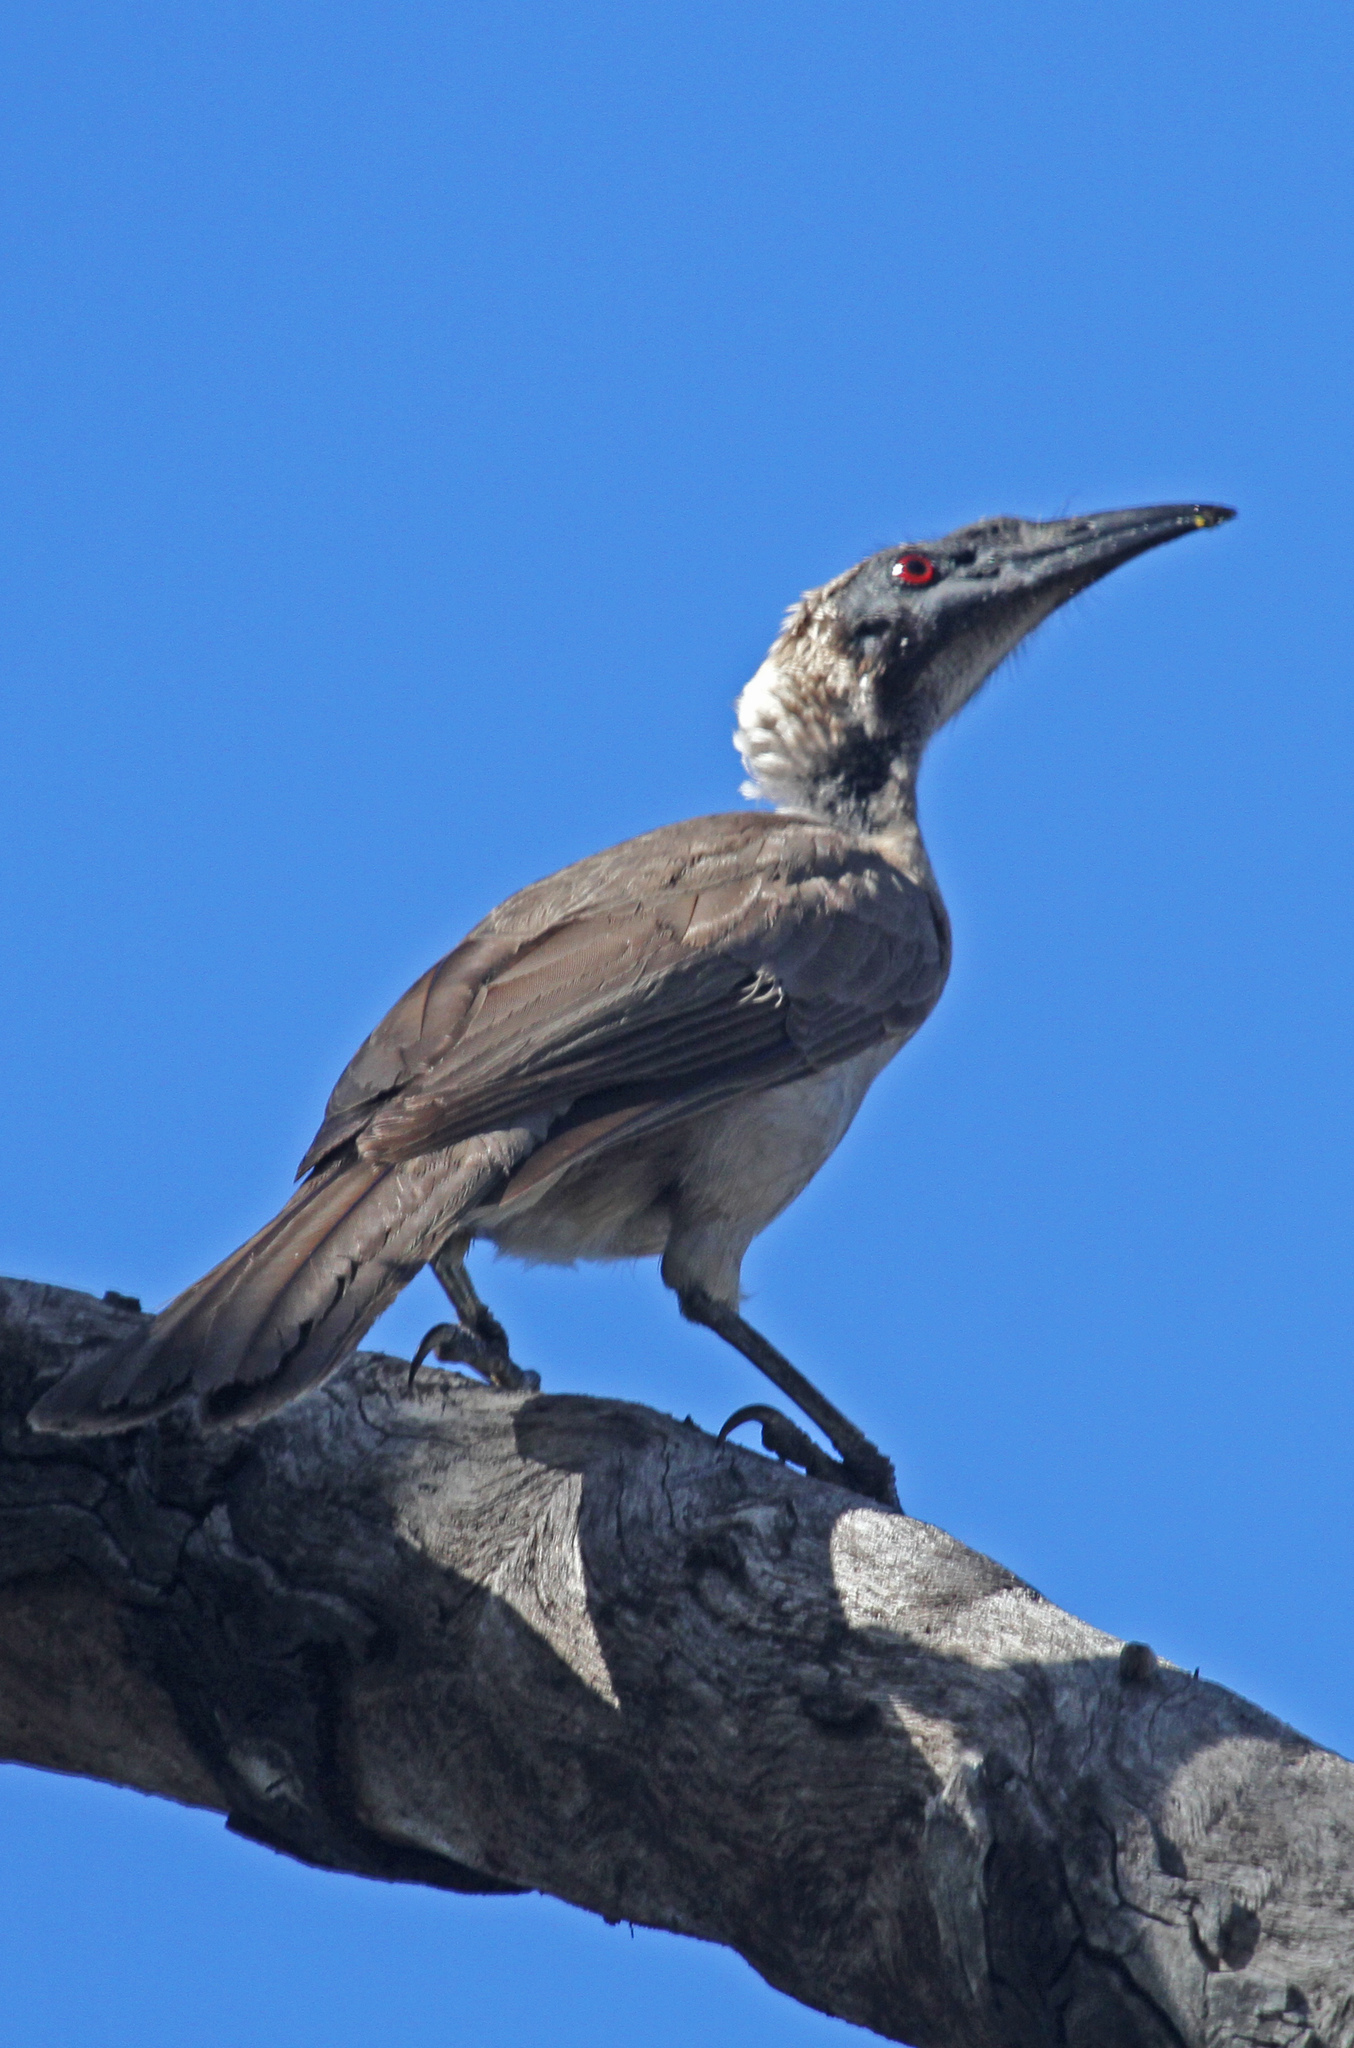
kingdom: Animalia
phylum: Chordata
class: Aves
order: Passeriformes
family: Meliphagidae
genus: Philemon
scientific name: Philemon buceroides
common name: Helmeted friarbird
